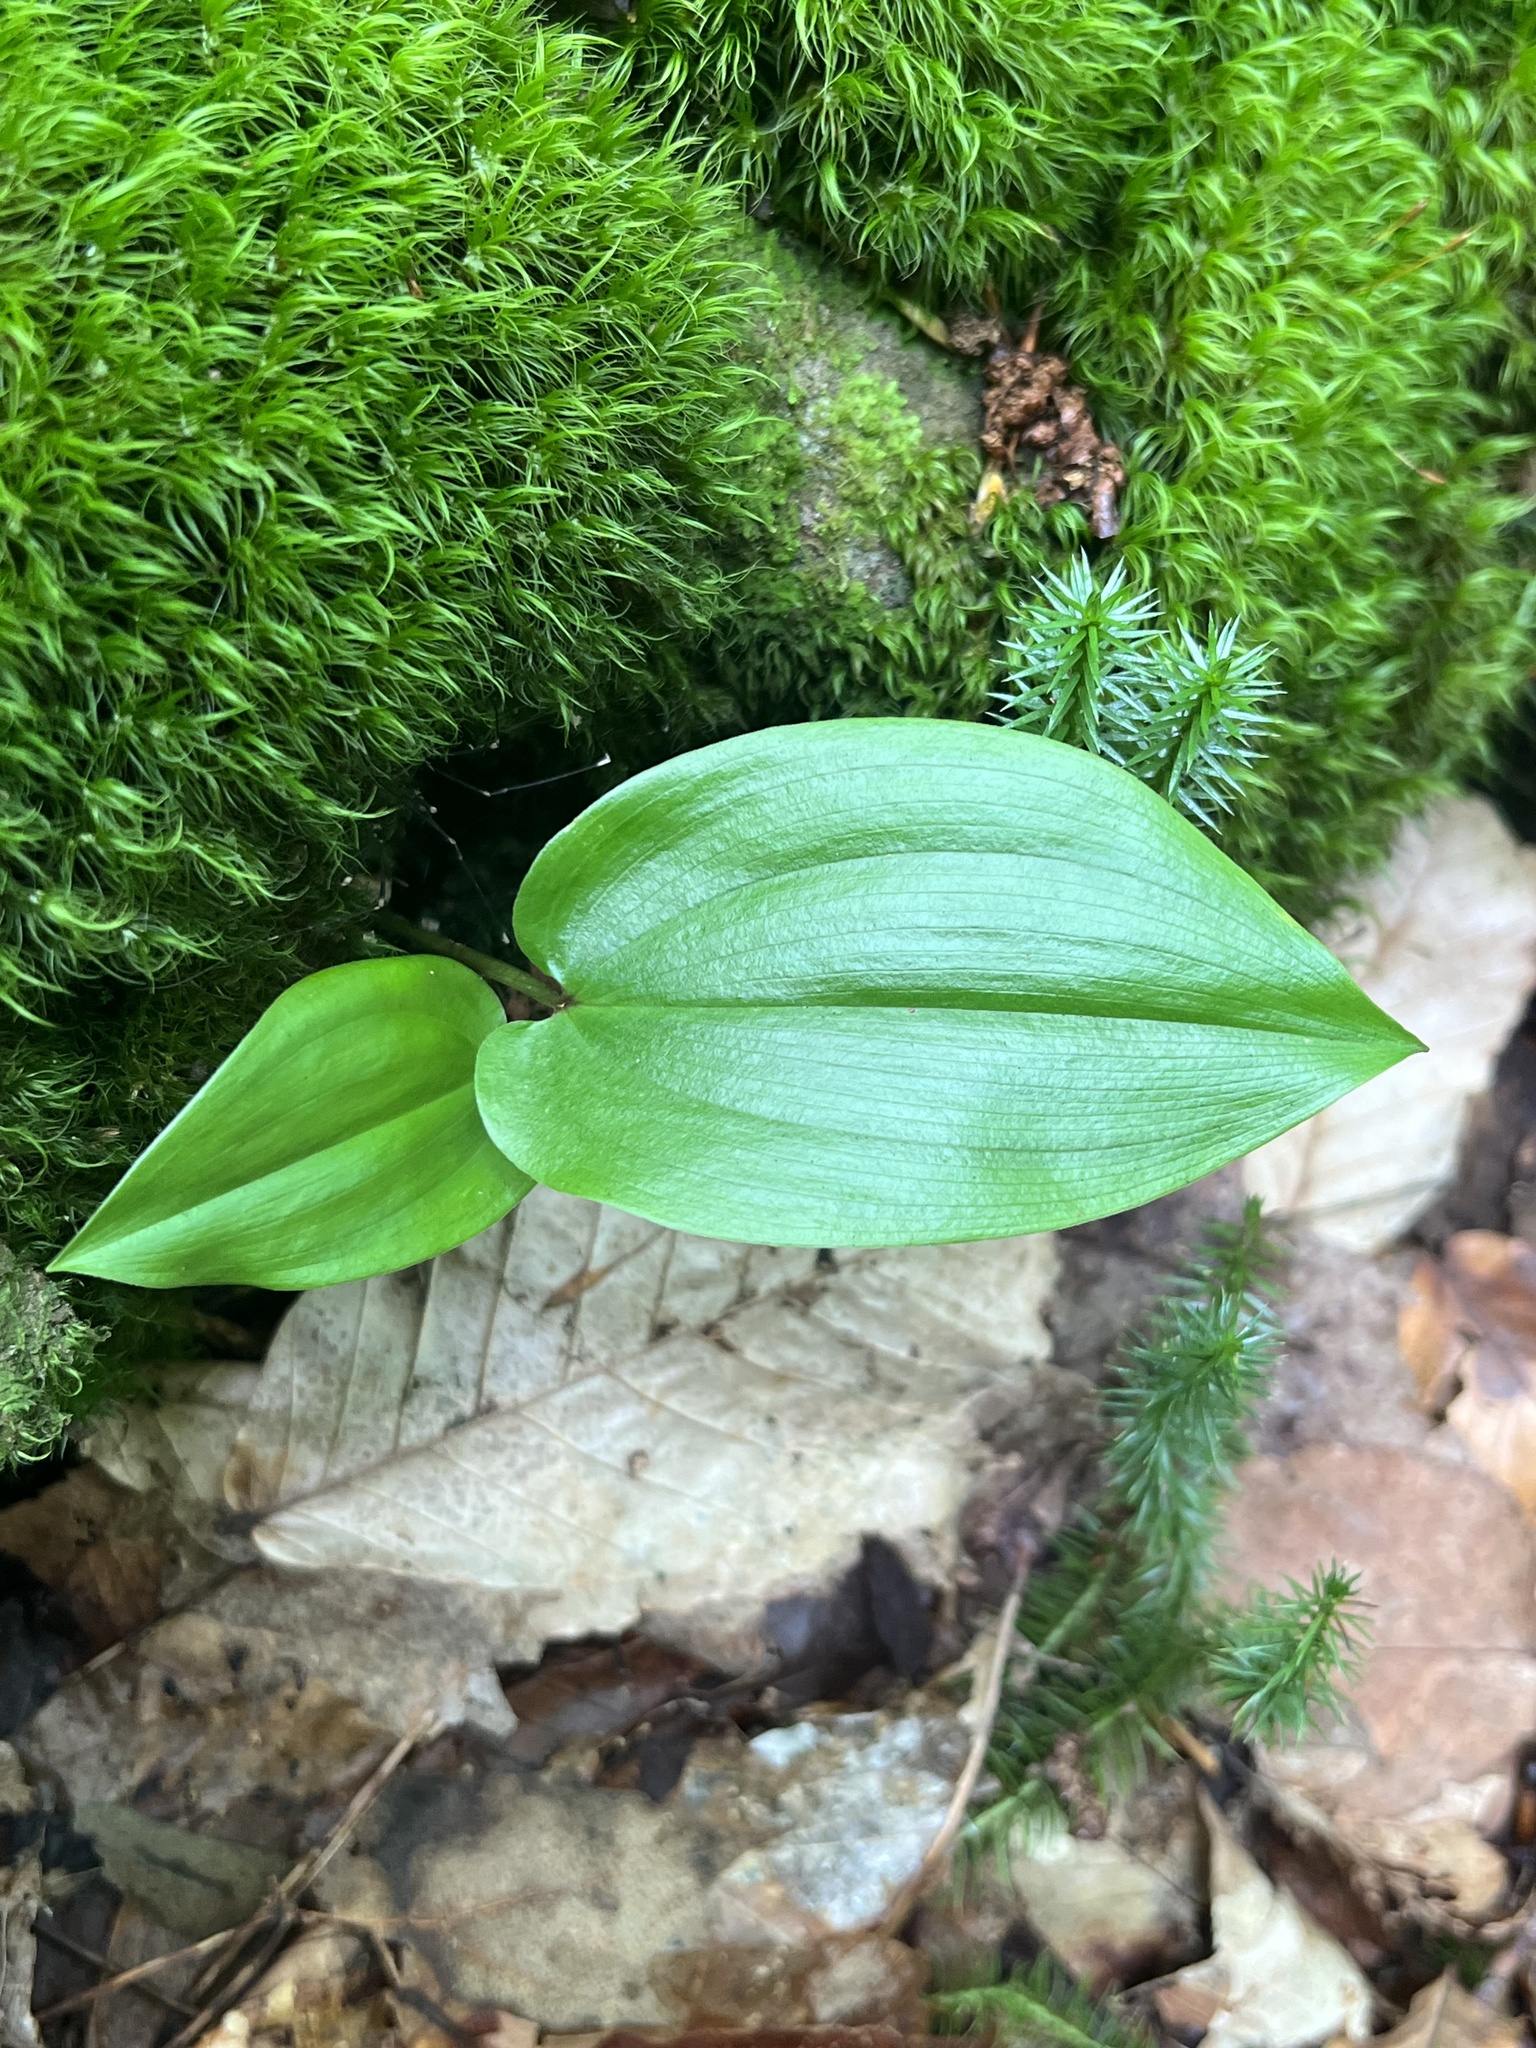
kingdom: Plantae
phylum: Tracheophyta
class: Liliopsida
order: Asparagales
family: Asparagaceae
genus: Maianthemum
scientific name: Maianthemum canadense
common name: False lily-of-the-valley
